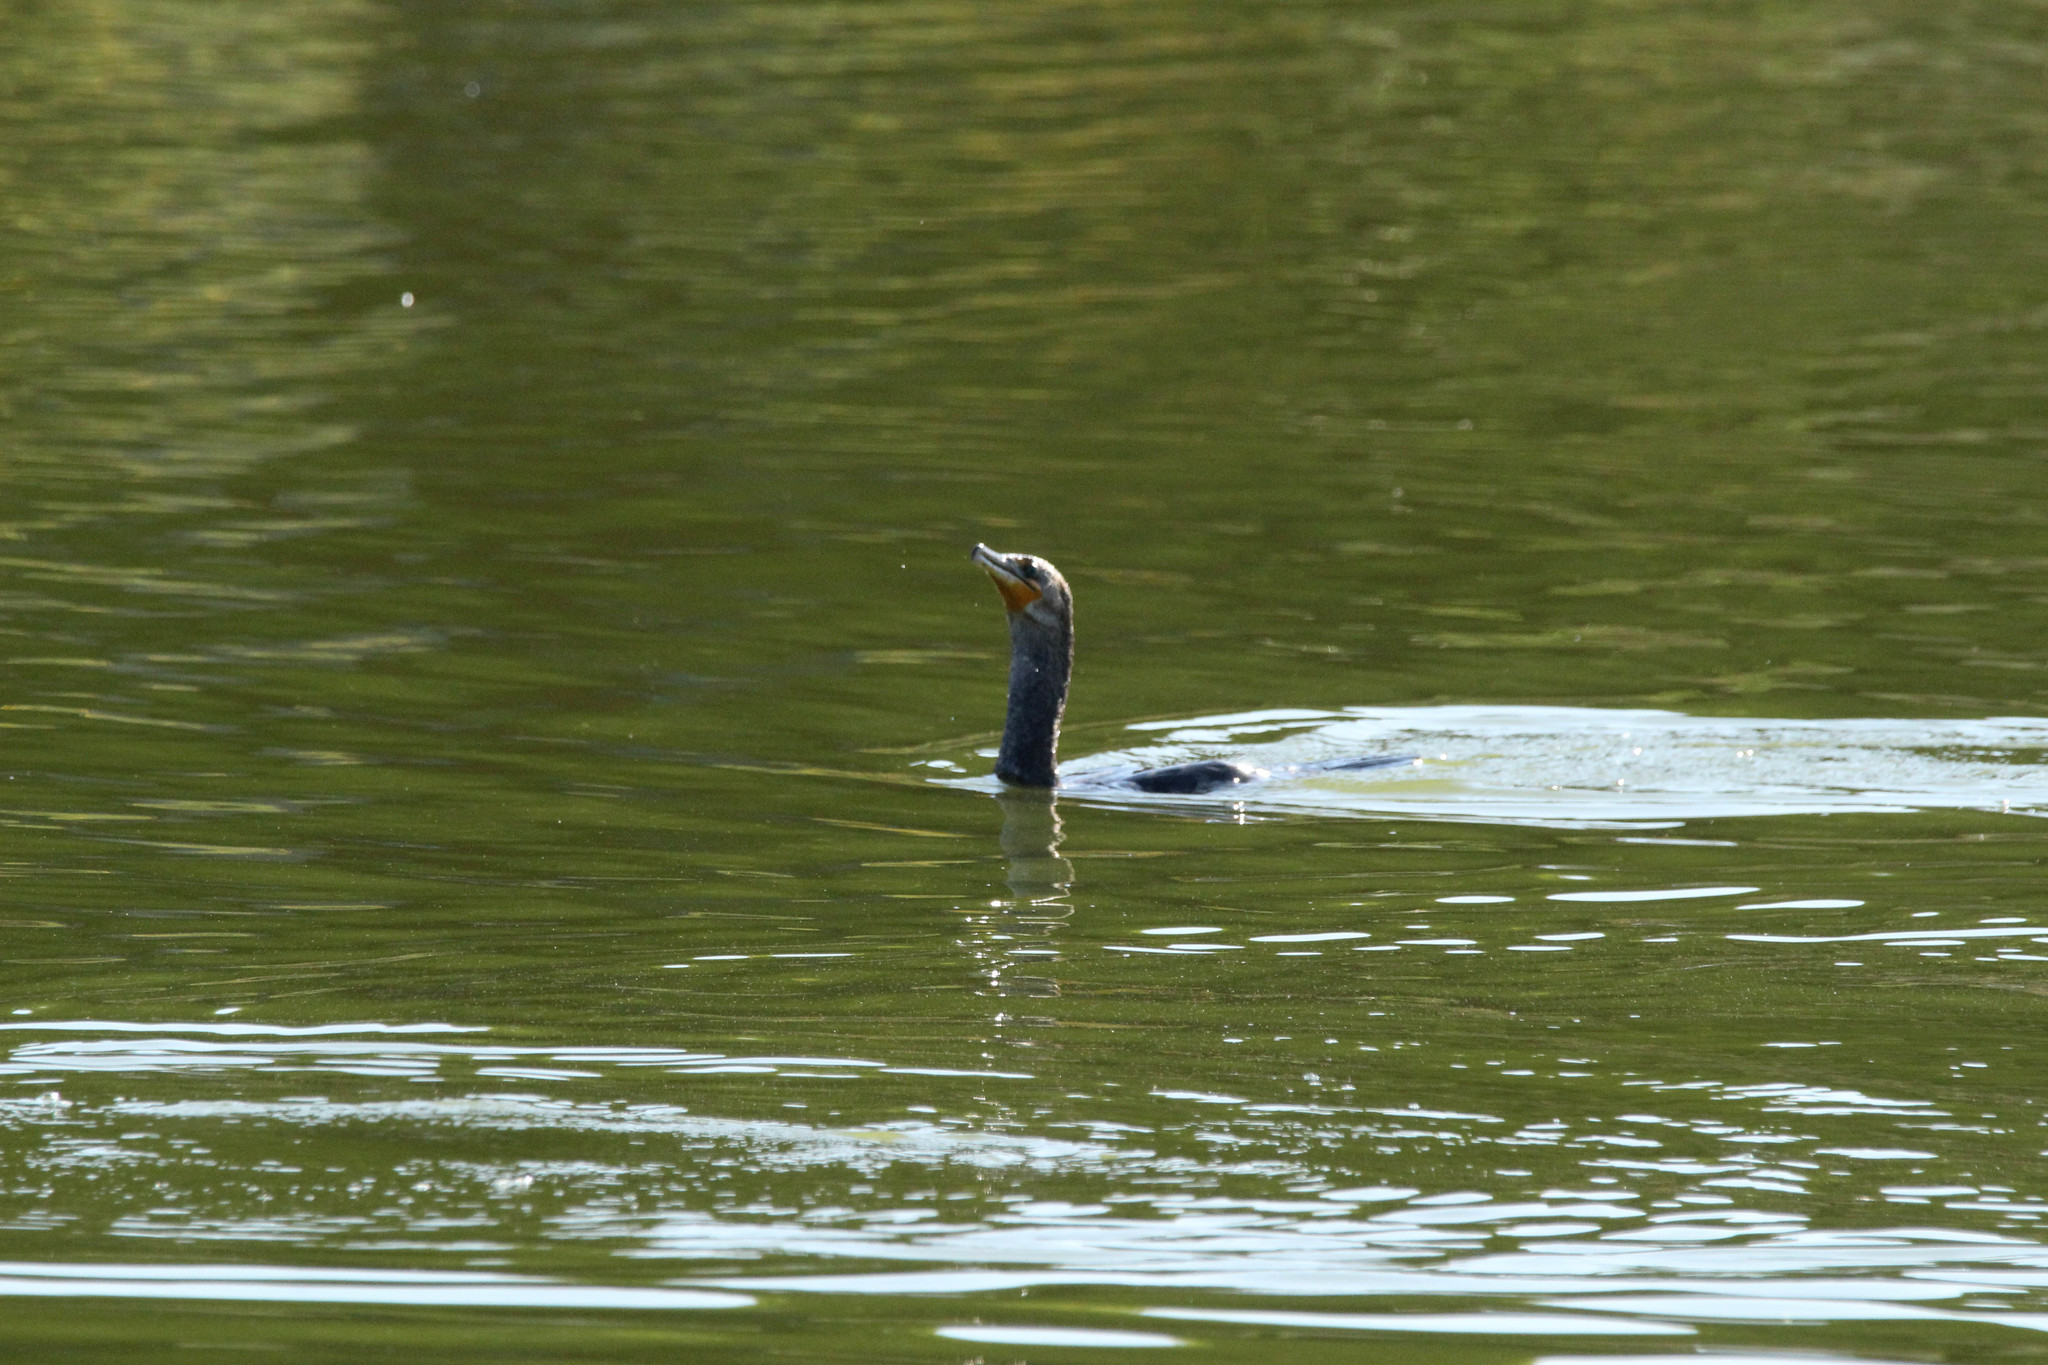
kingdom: Animalia
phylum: Chordata
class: Aves
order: Suliformes
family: Phalacrocoracidae
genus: Phalacrocorax
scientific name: Phalacrocorax auritus
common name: Double-crested cormorant
